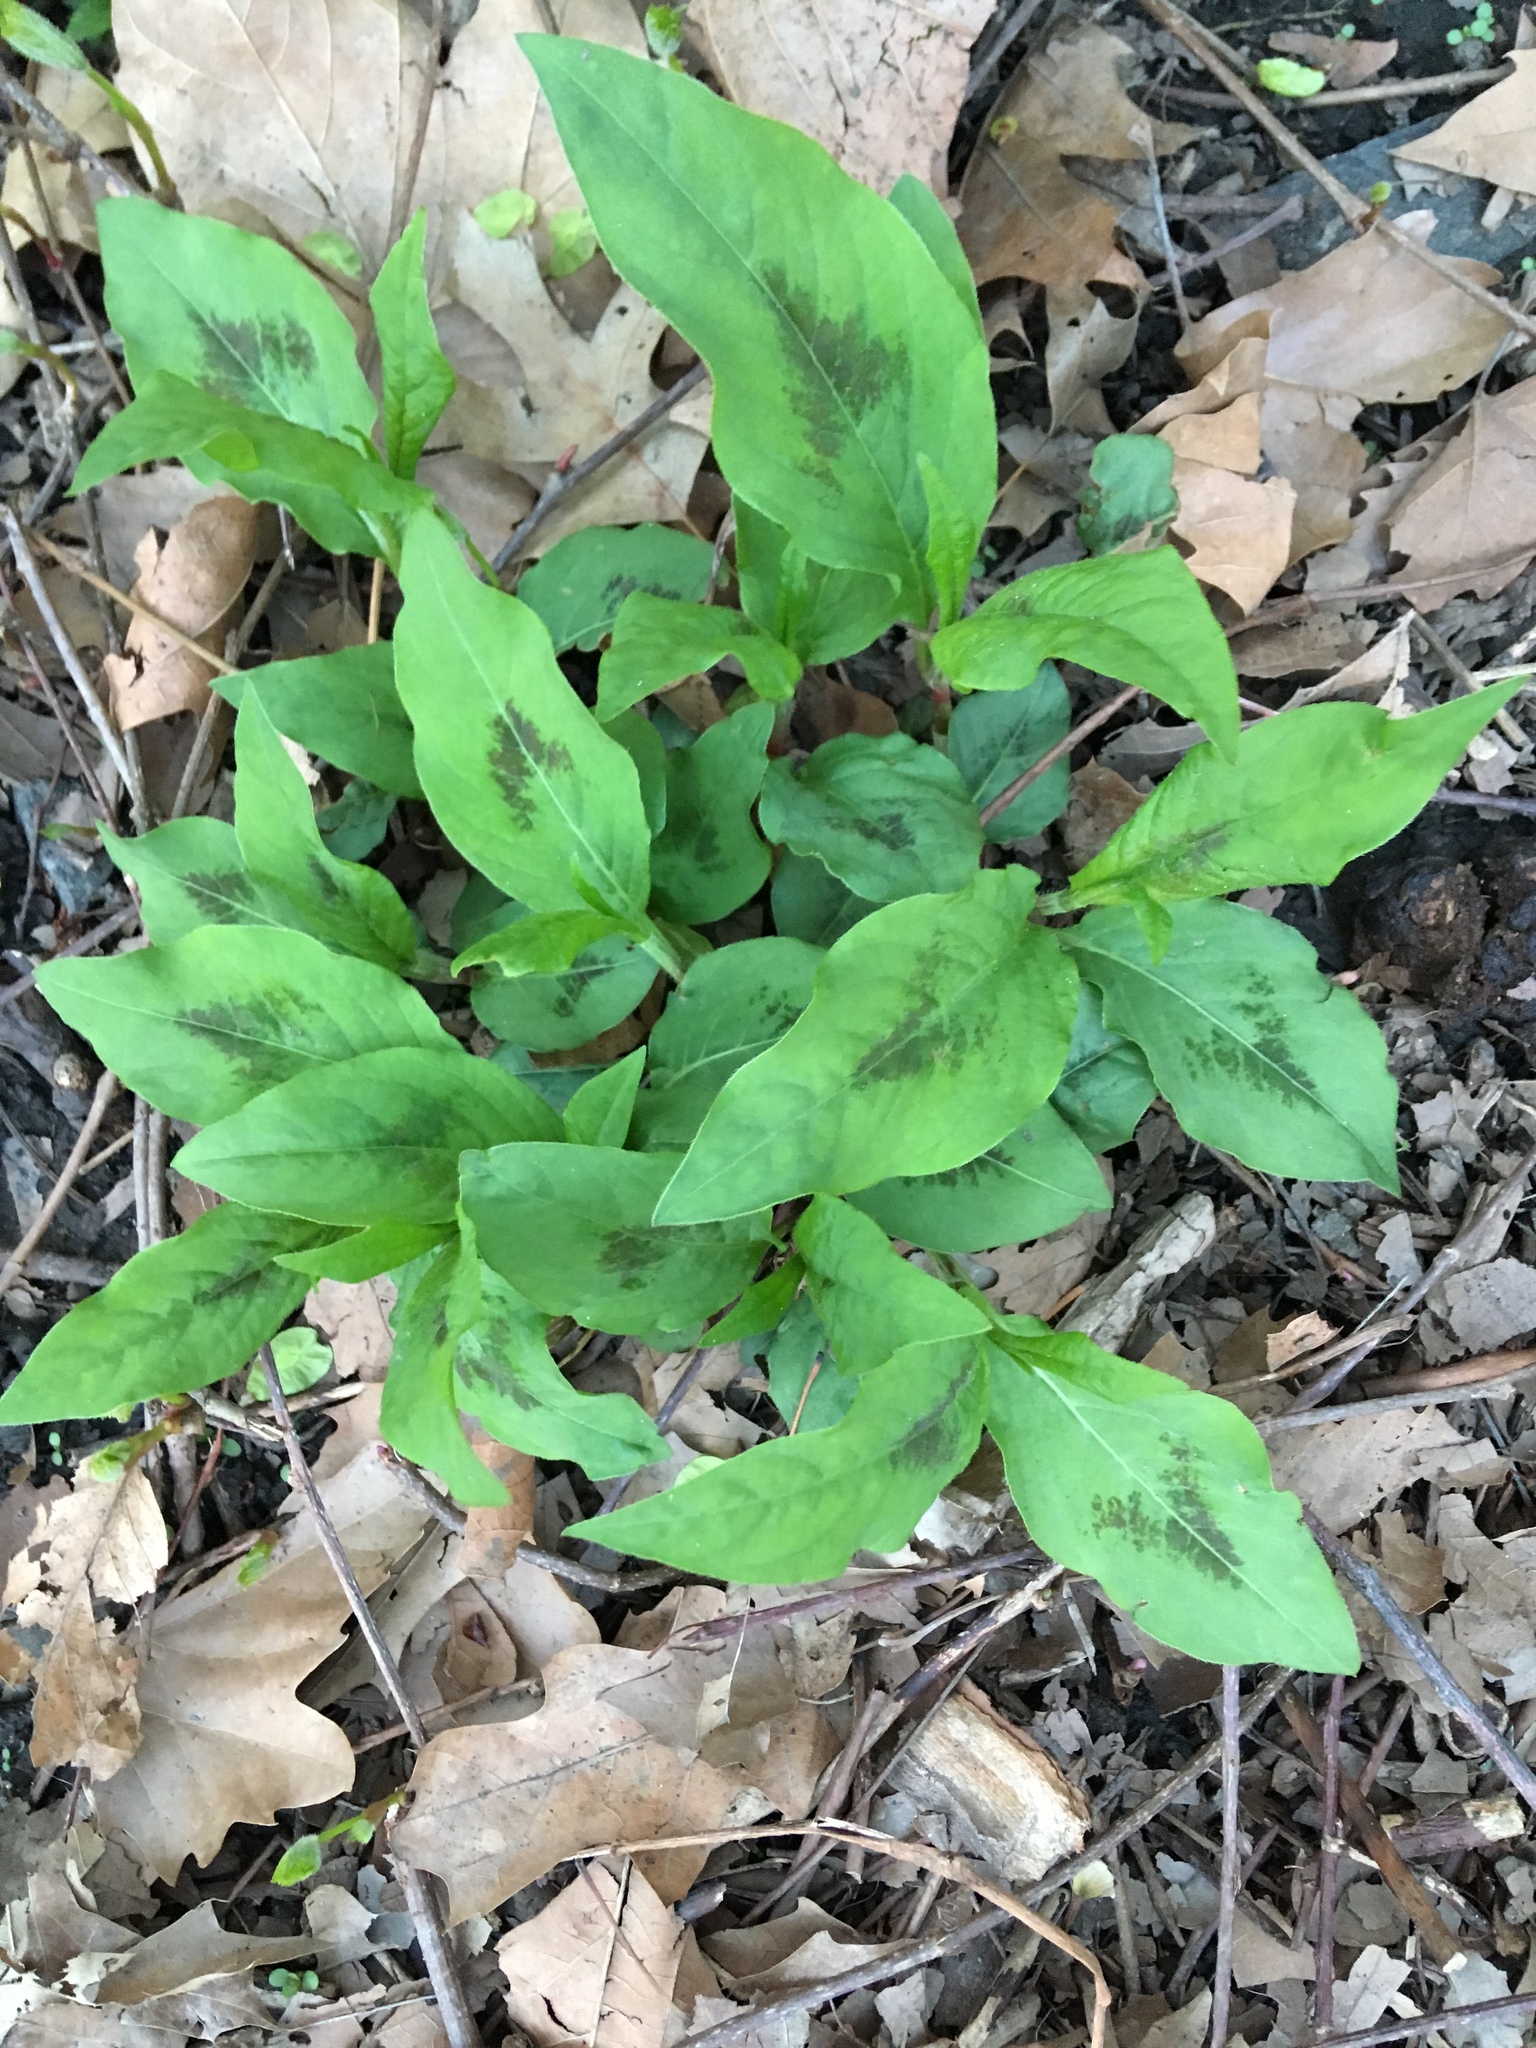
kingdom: Plantae
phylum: Tracheophyta
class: Magnoliopsida
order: Caryophyllales
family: Polygonaceae
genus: Persicaria
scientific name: Persicaria virginiana
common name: Jumpseed
